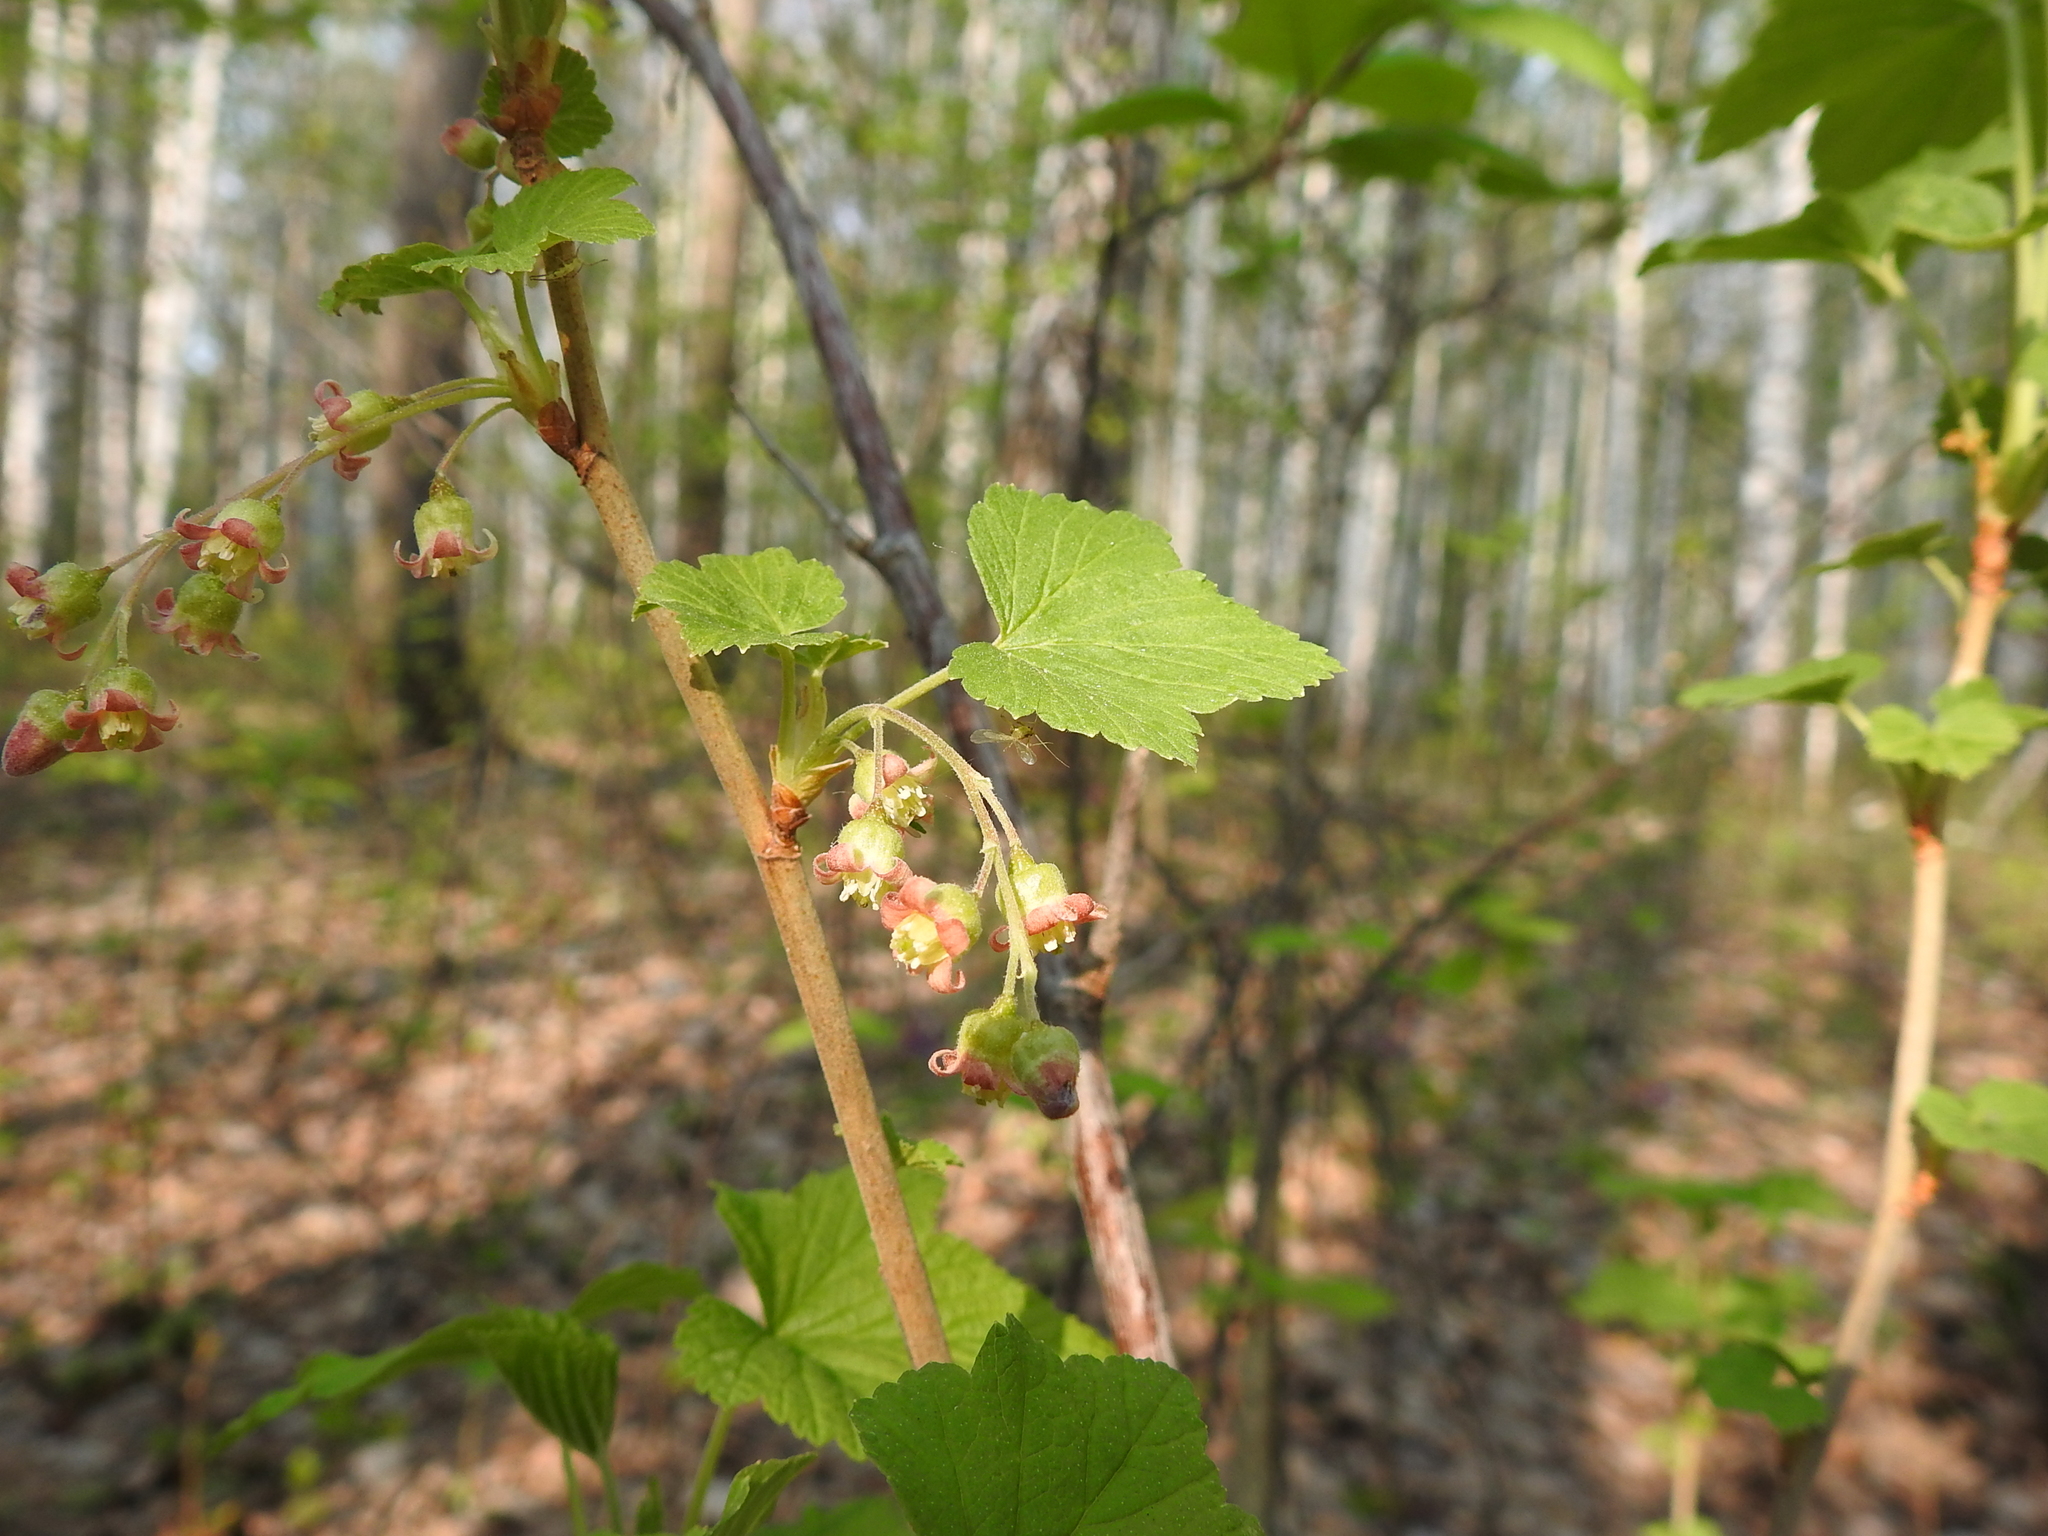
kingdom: Plantae
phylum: Tracheophyta
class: Magnoliopsida
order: Saxifragales
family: Grossulariaceae
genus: Ribes
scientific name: Ribes nigrum
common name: Black currant
